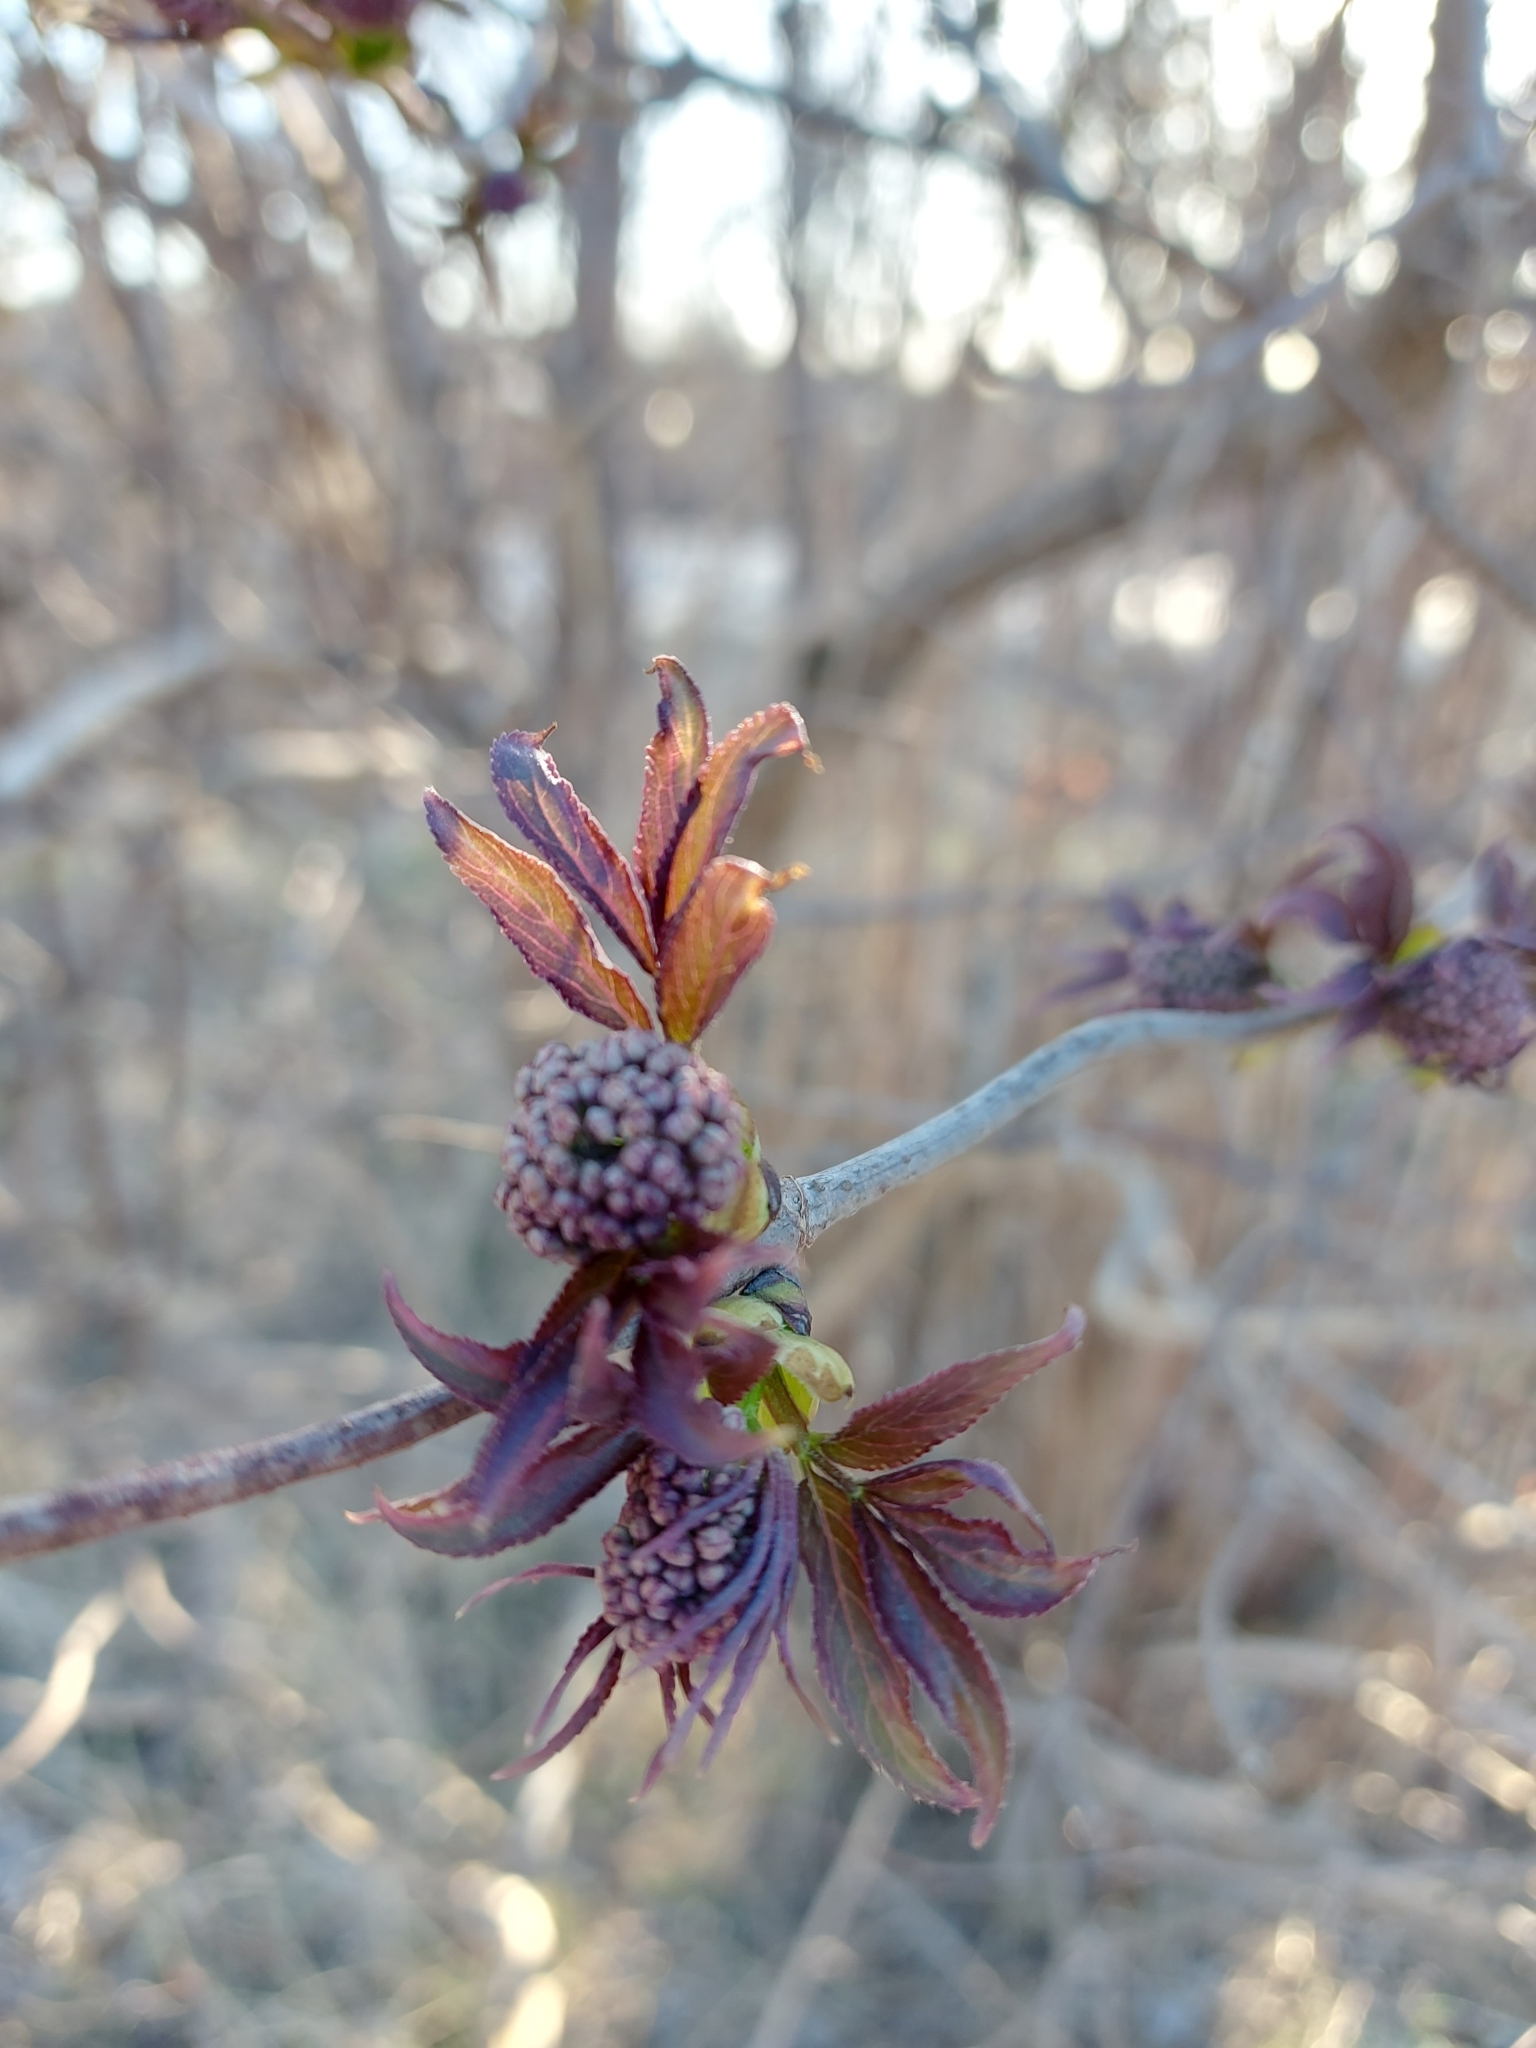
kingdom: Plantae
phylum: Tracheophyta
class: Magnoliopsida
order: Dipsacales
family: Viburnaceae
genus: Sambucus
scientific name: Sambucus racemosa
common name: Red-berried elder
